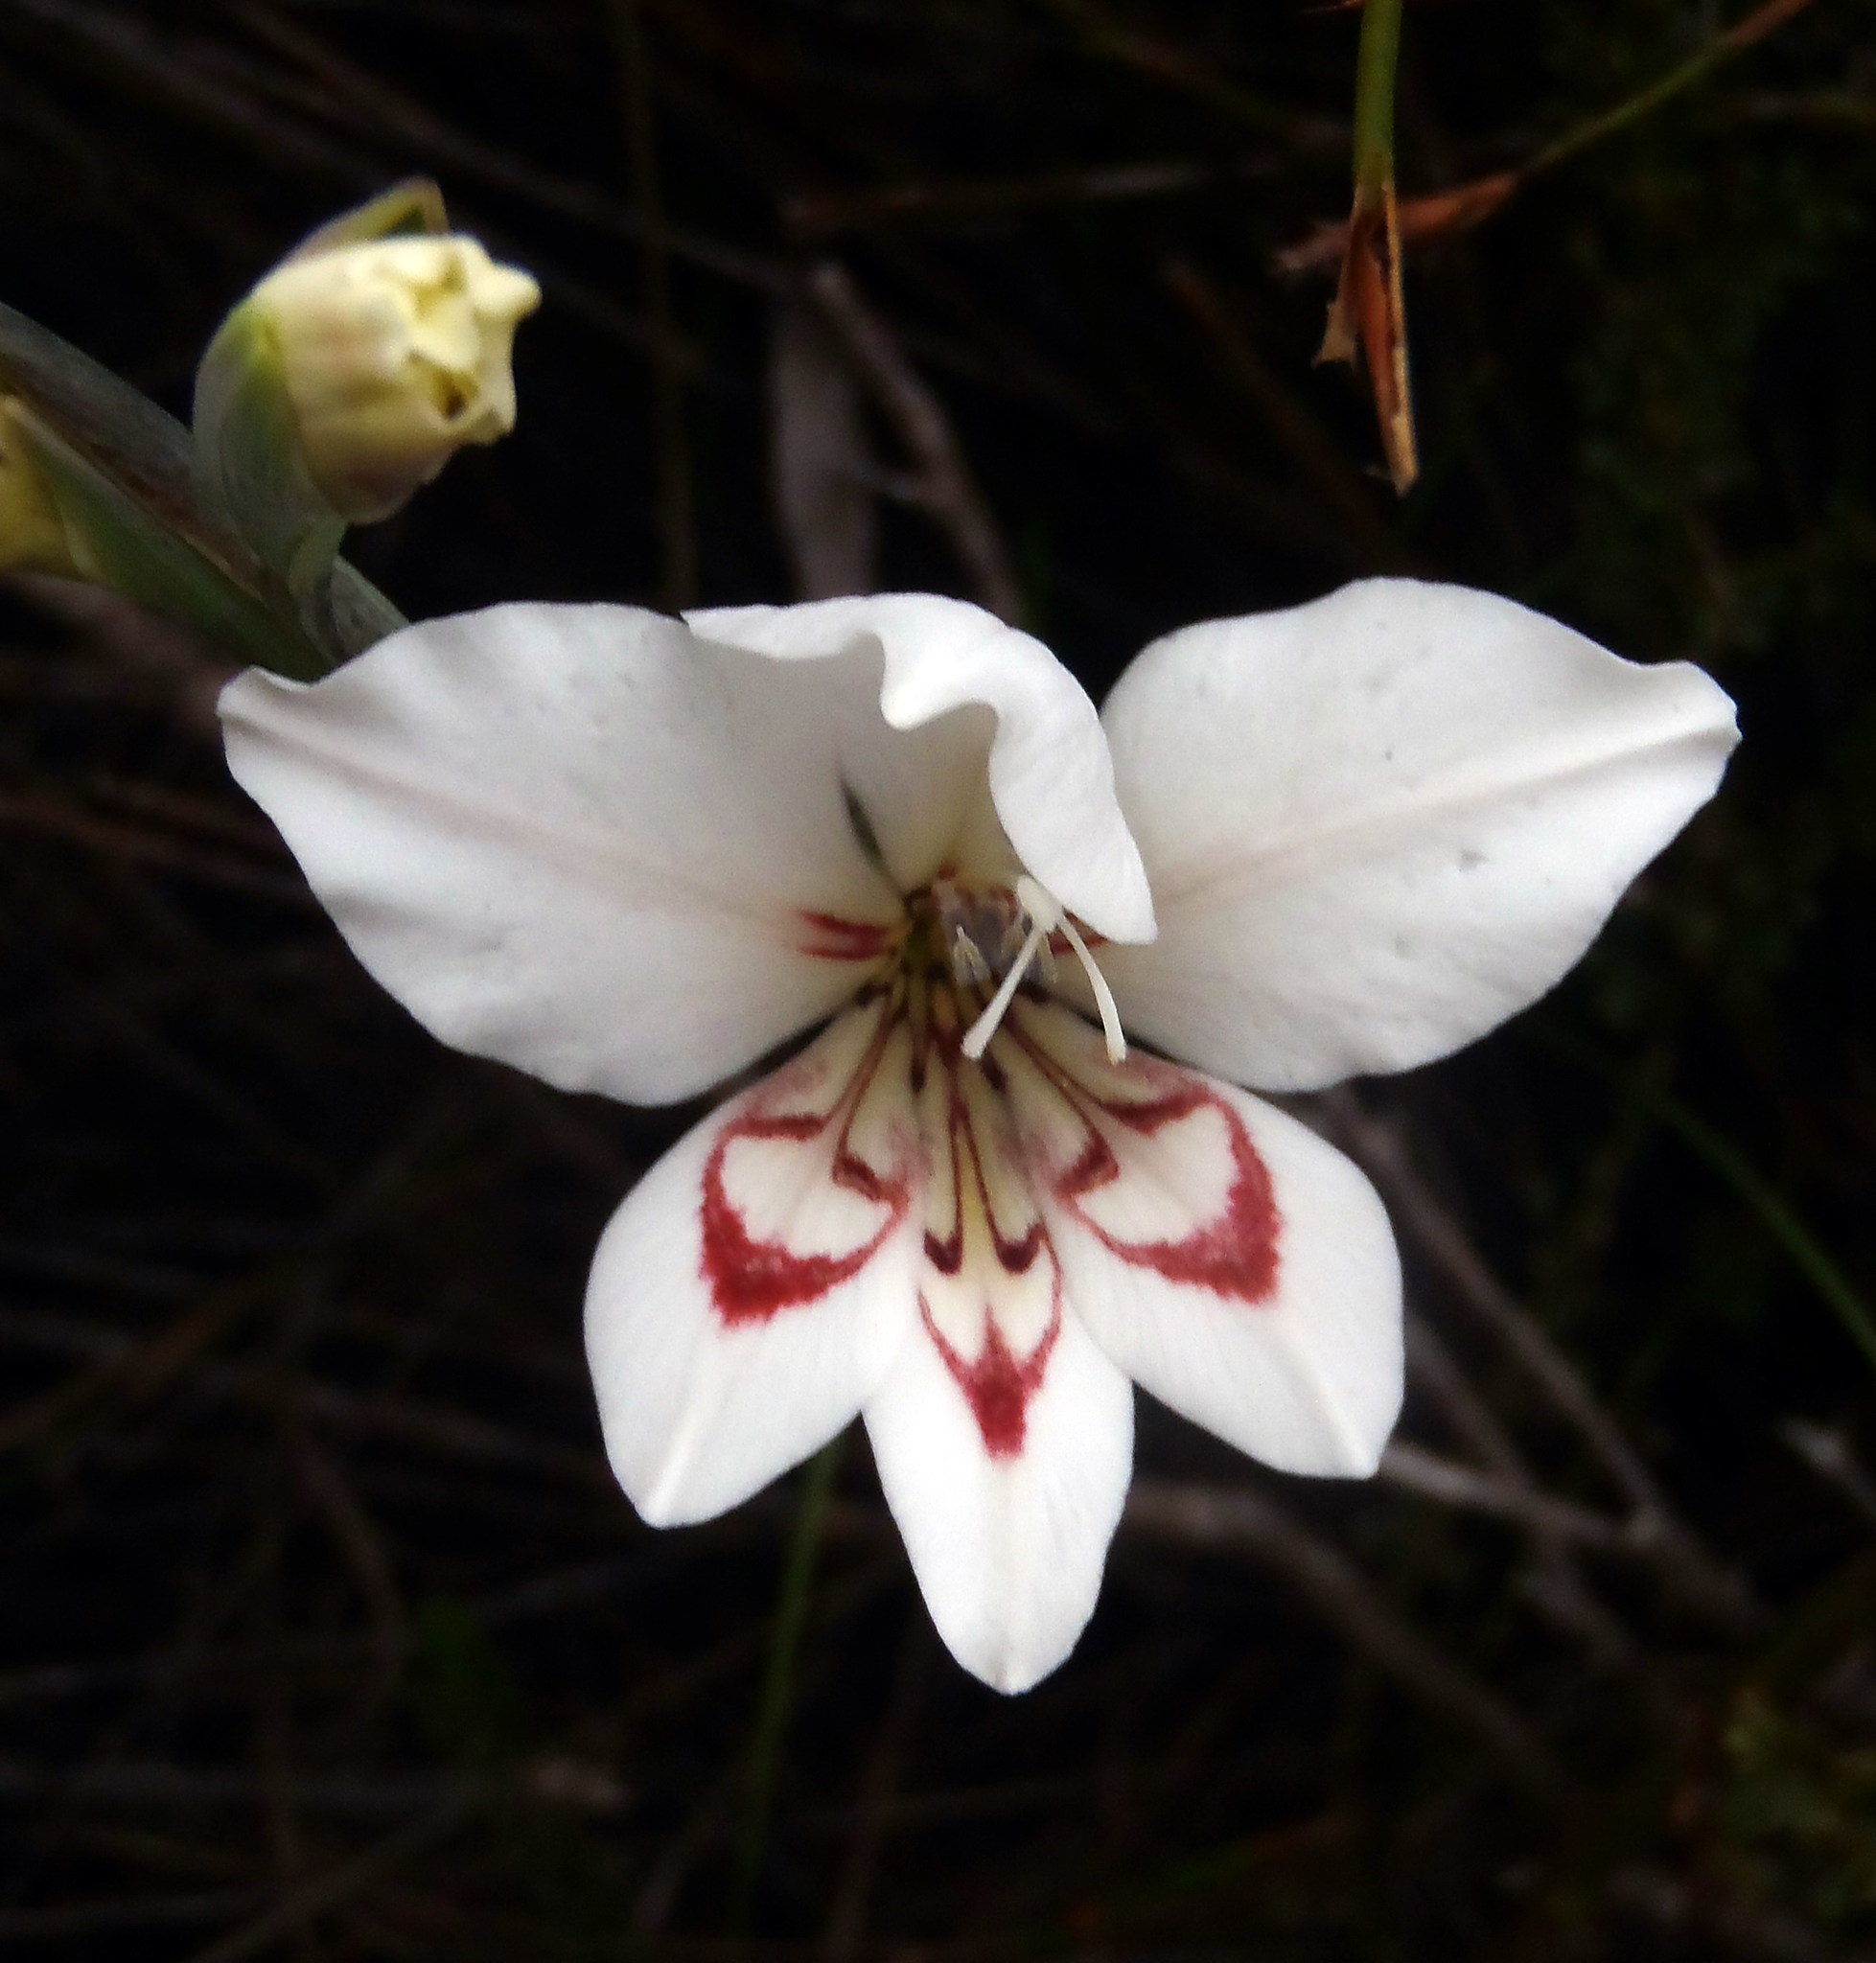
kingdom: Plantae
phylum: Tracheophyta
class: Liliopsida
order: Asparagales
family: Iridaceae
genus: Gladiolus
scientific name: Gladiolus debilis
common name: Painted-lady
